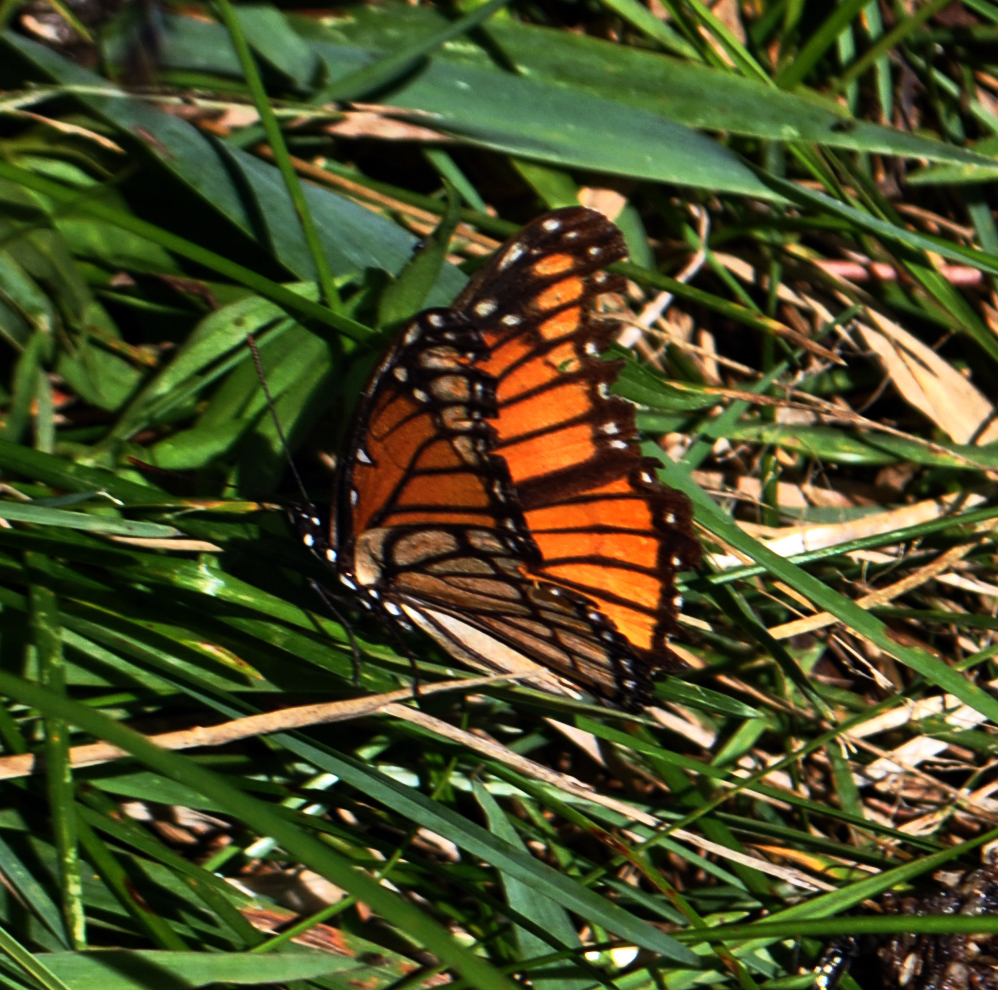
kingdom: Animalia
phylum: Arthropoda
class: Insecta
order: Lepidoptera
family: Nymphalidae
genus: Limenitis
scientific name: Limenitis archippus
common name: Viceroy
